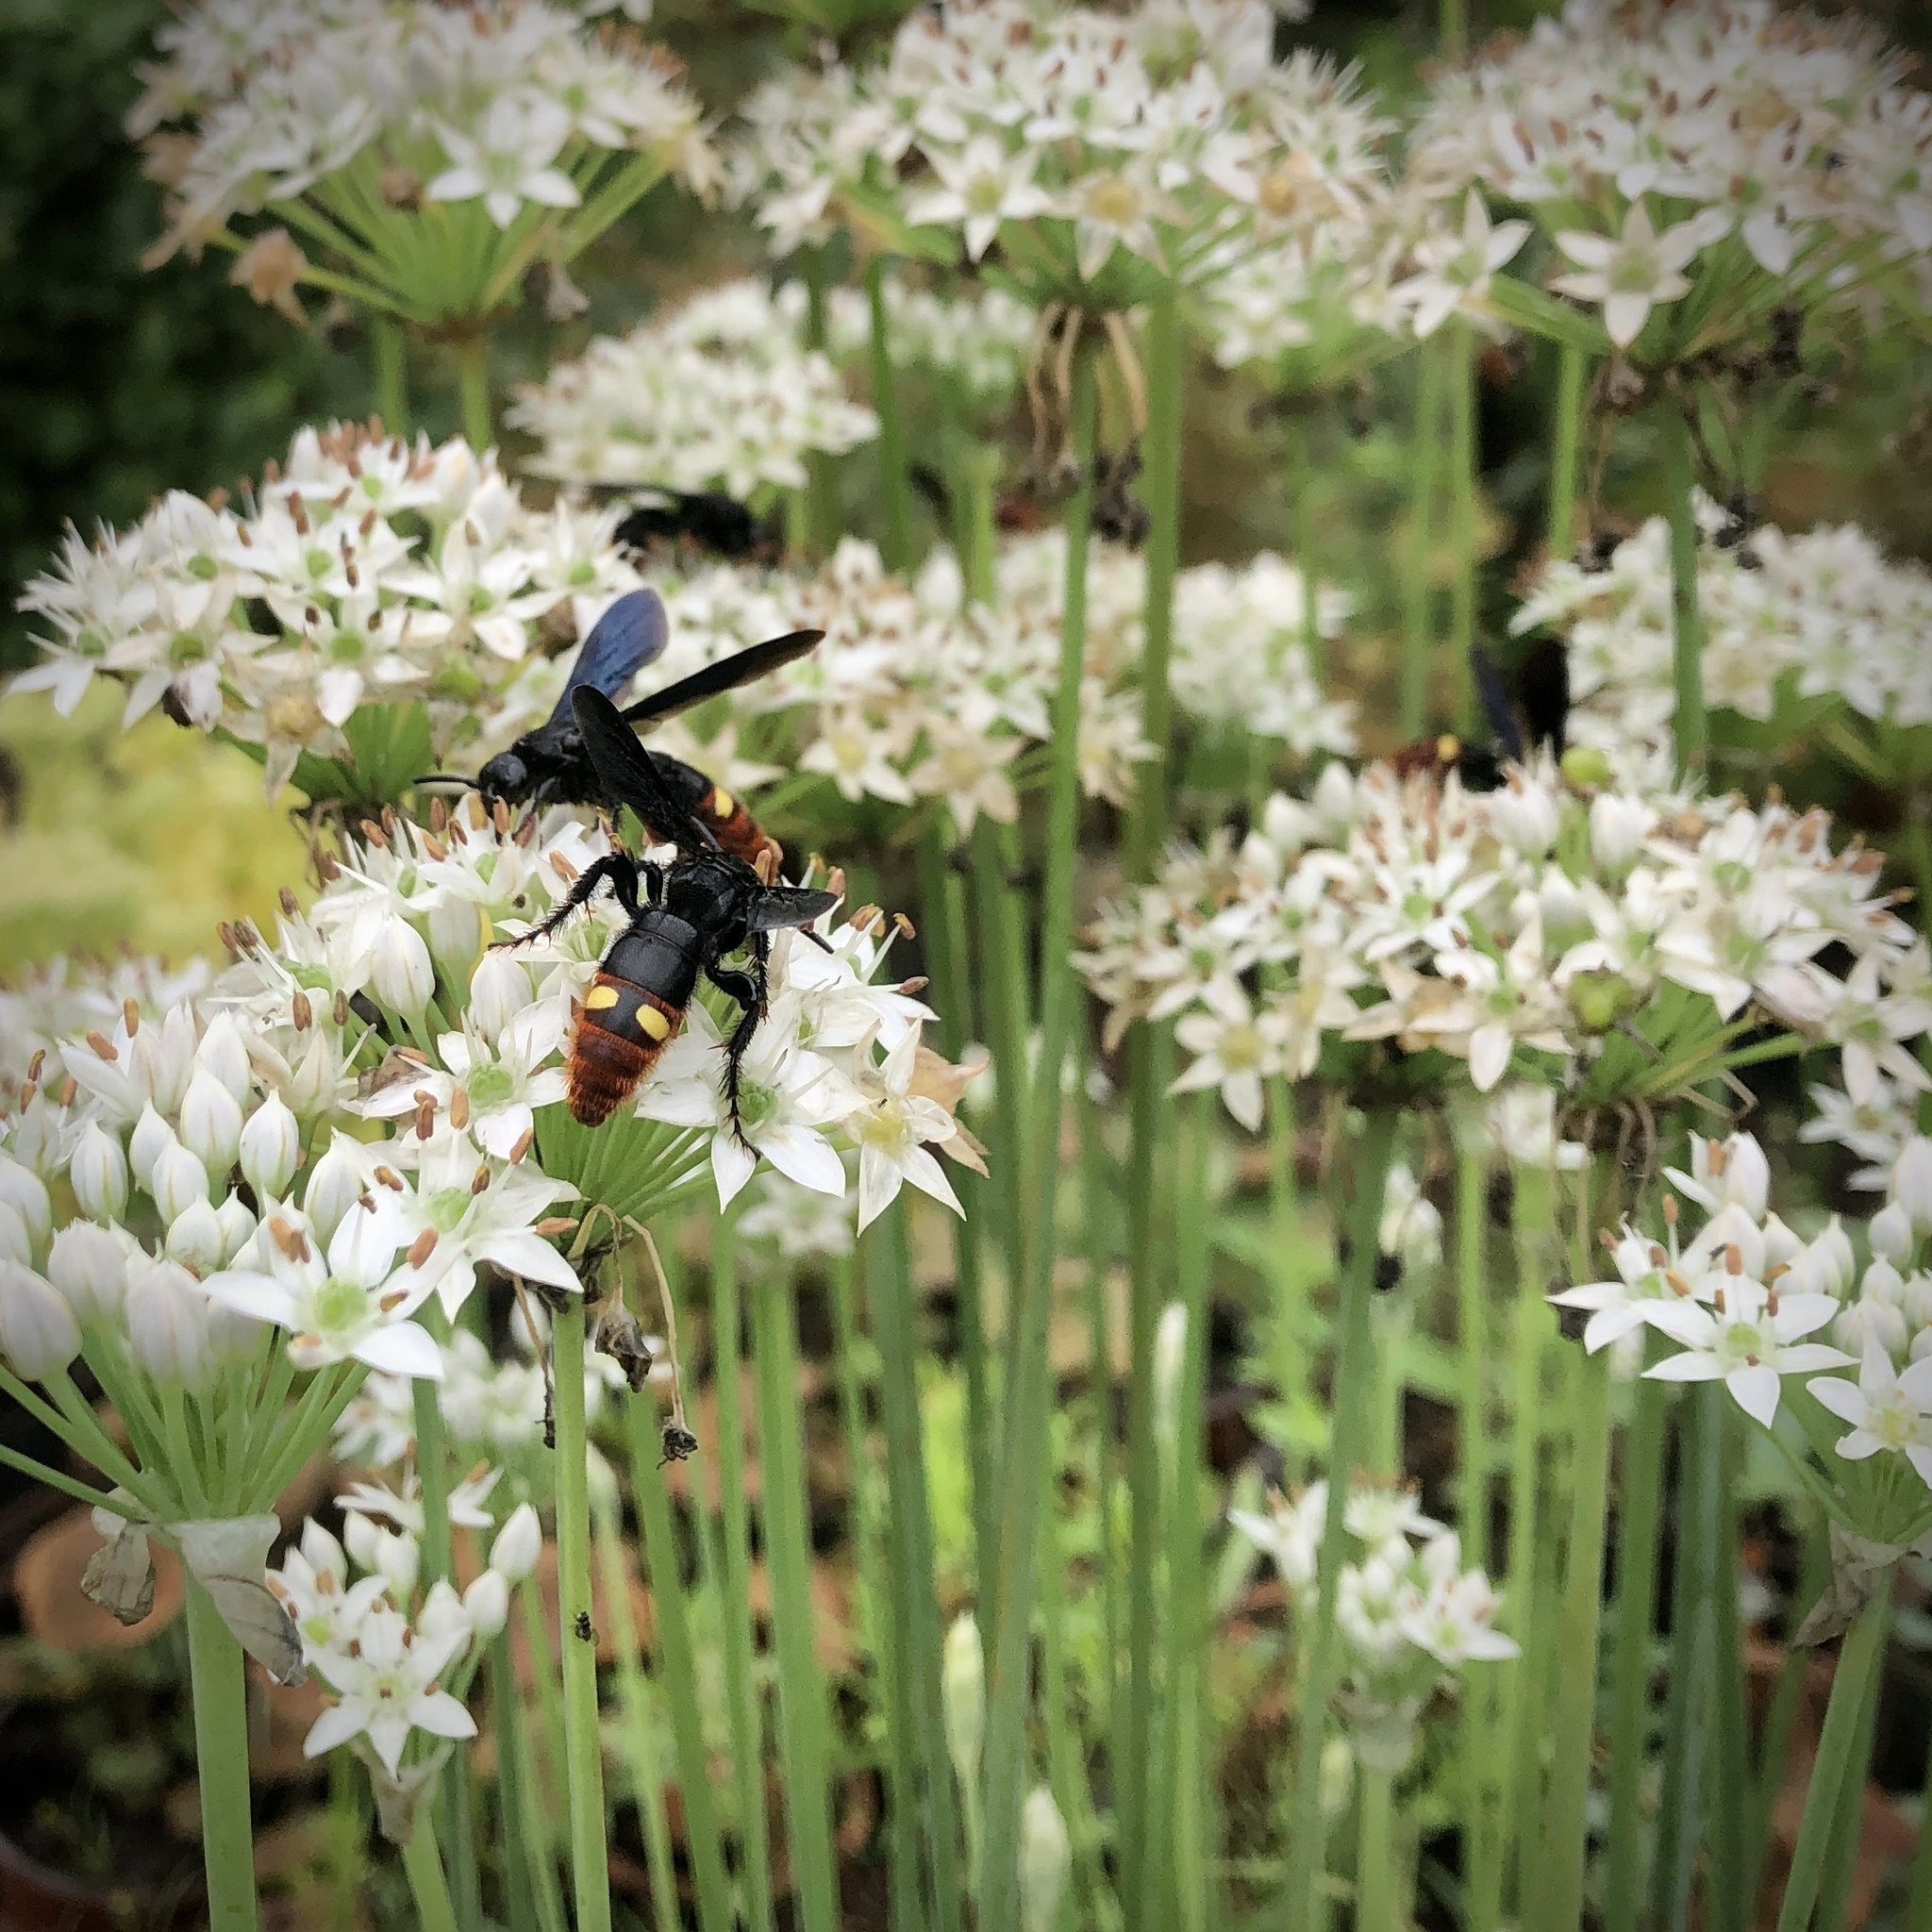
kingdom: Animalia
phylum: Arthropoda
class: Insecta
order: Hymenoptera
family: Scoliidae
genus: Scolia
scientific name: Scolia dubia
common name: Blue-winged scoliid wasp
